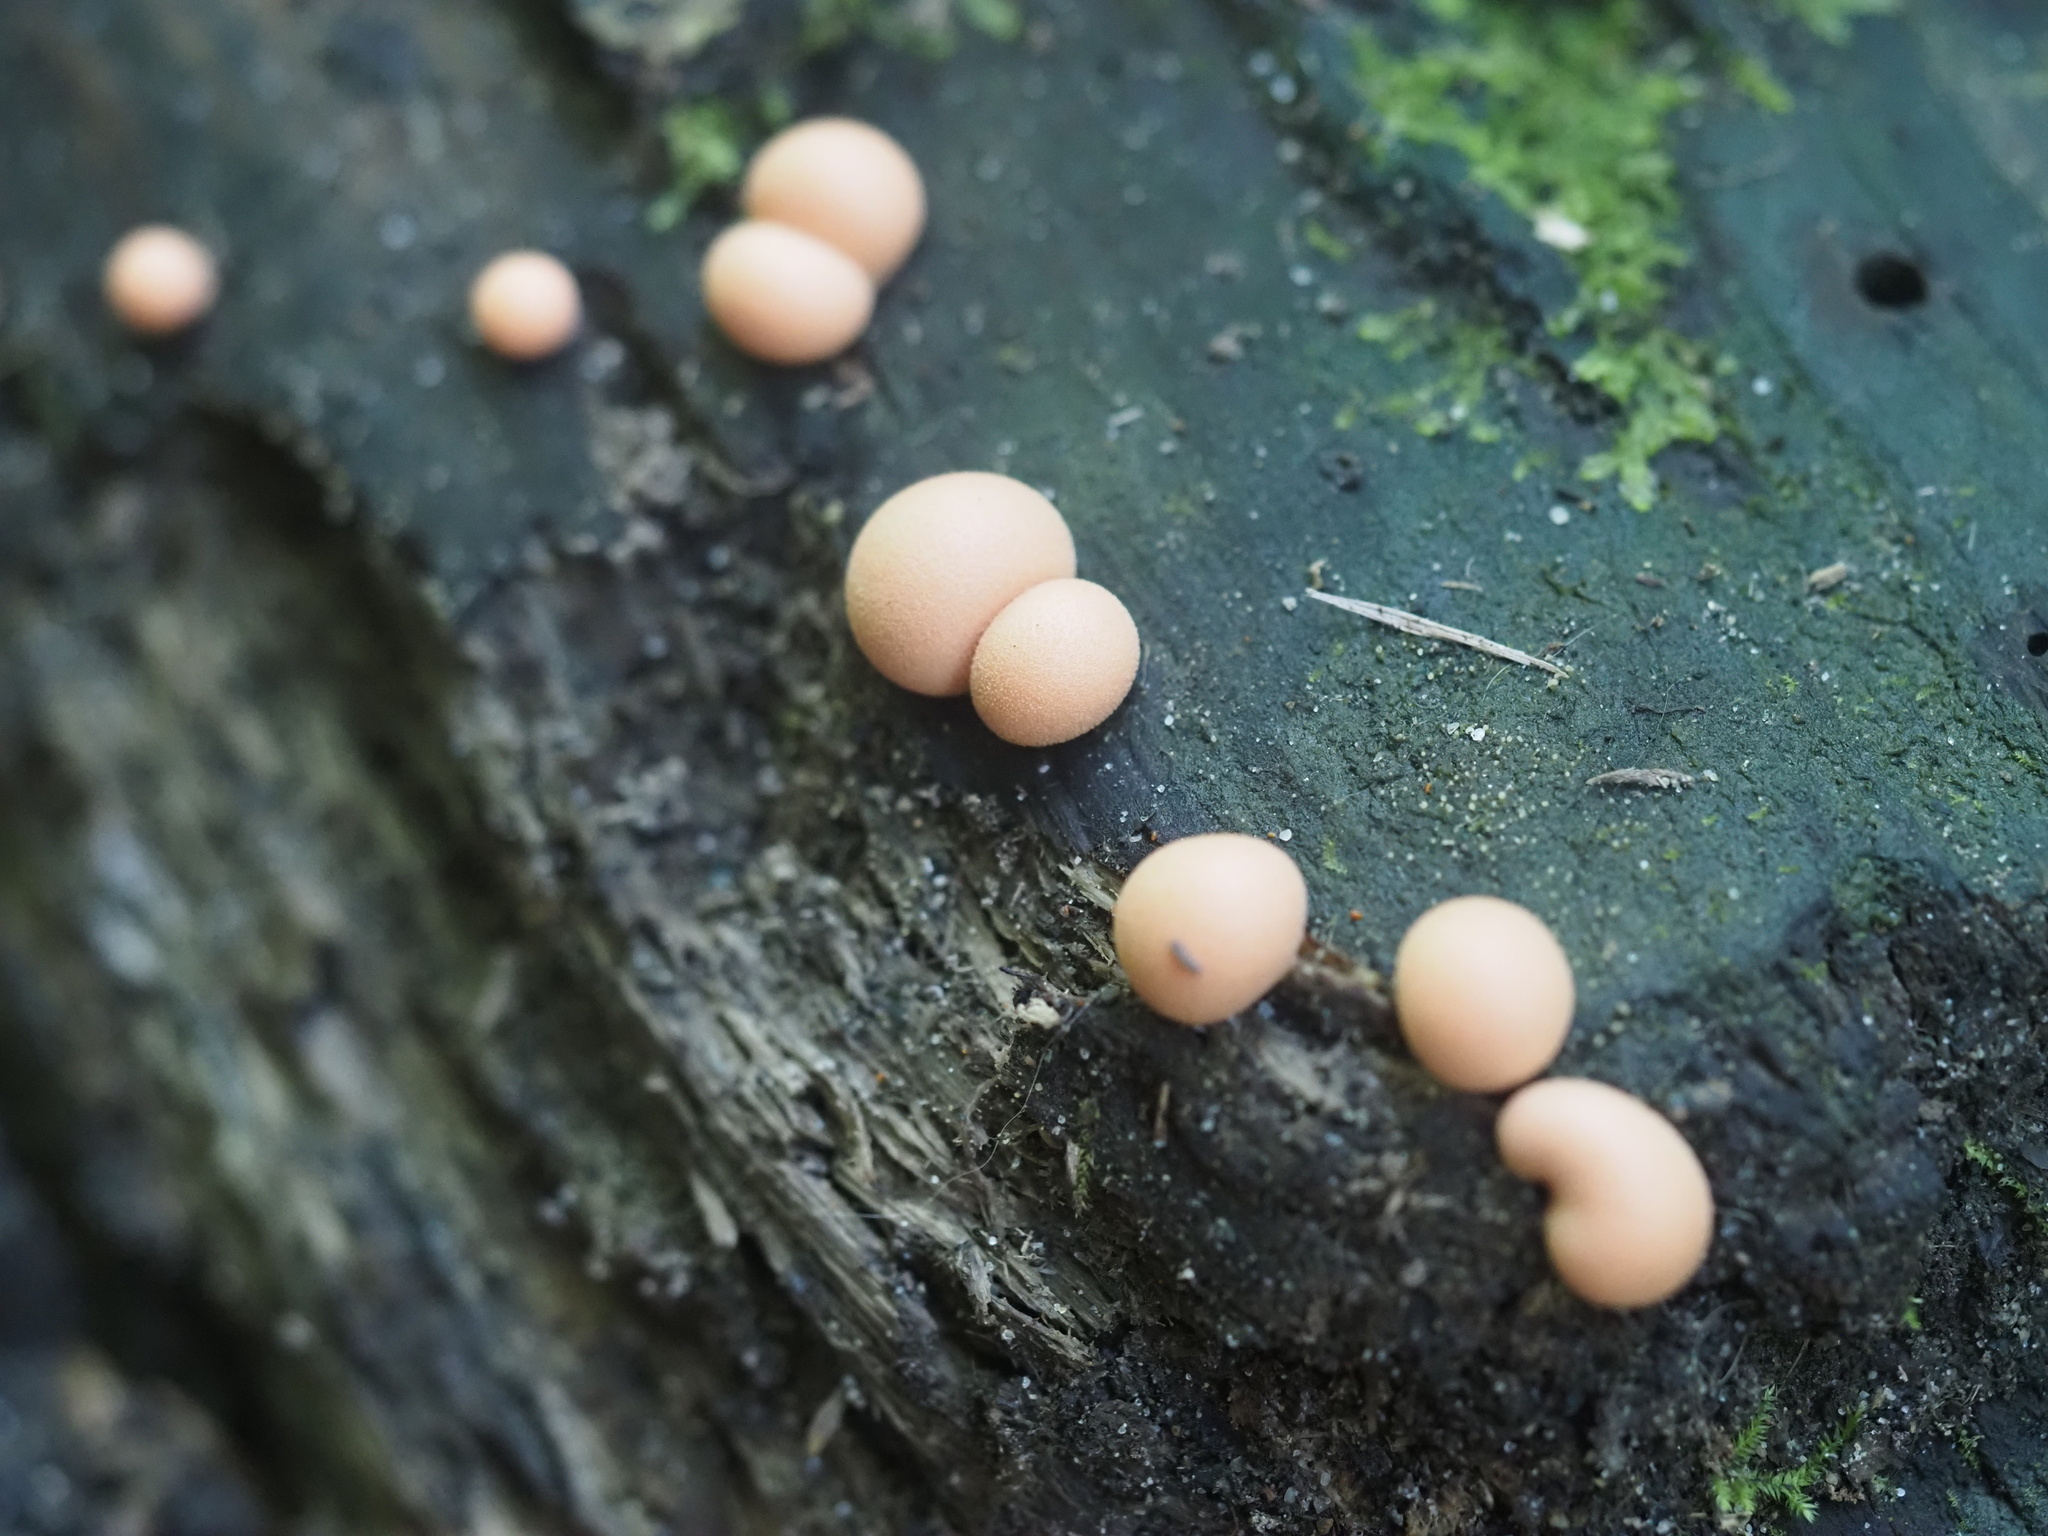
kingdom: Protozoa
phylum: Mycetozoa
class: Myxomycetes
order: Cribrariales
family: Tubiferaceae
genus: Lycogala
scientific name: Lycogala epidendrum
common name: Wolf's milk
